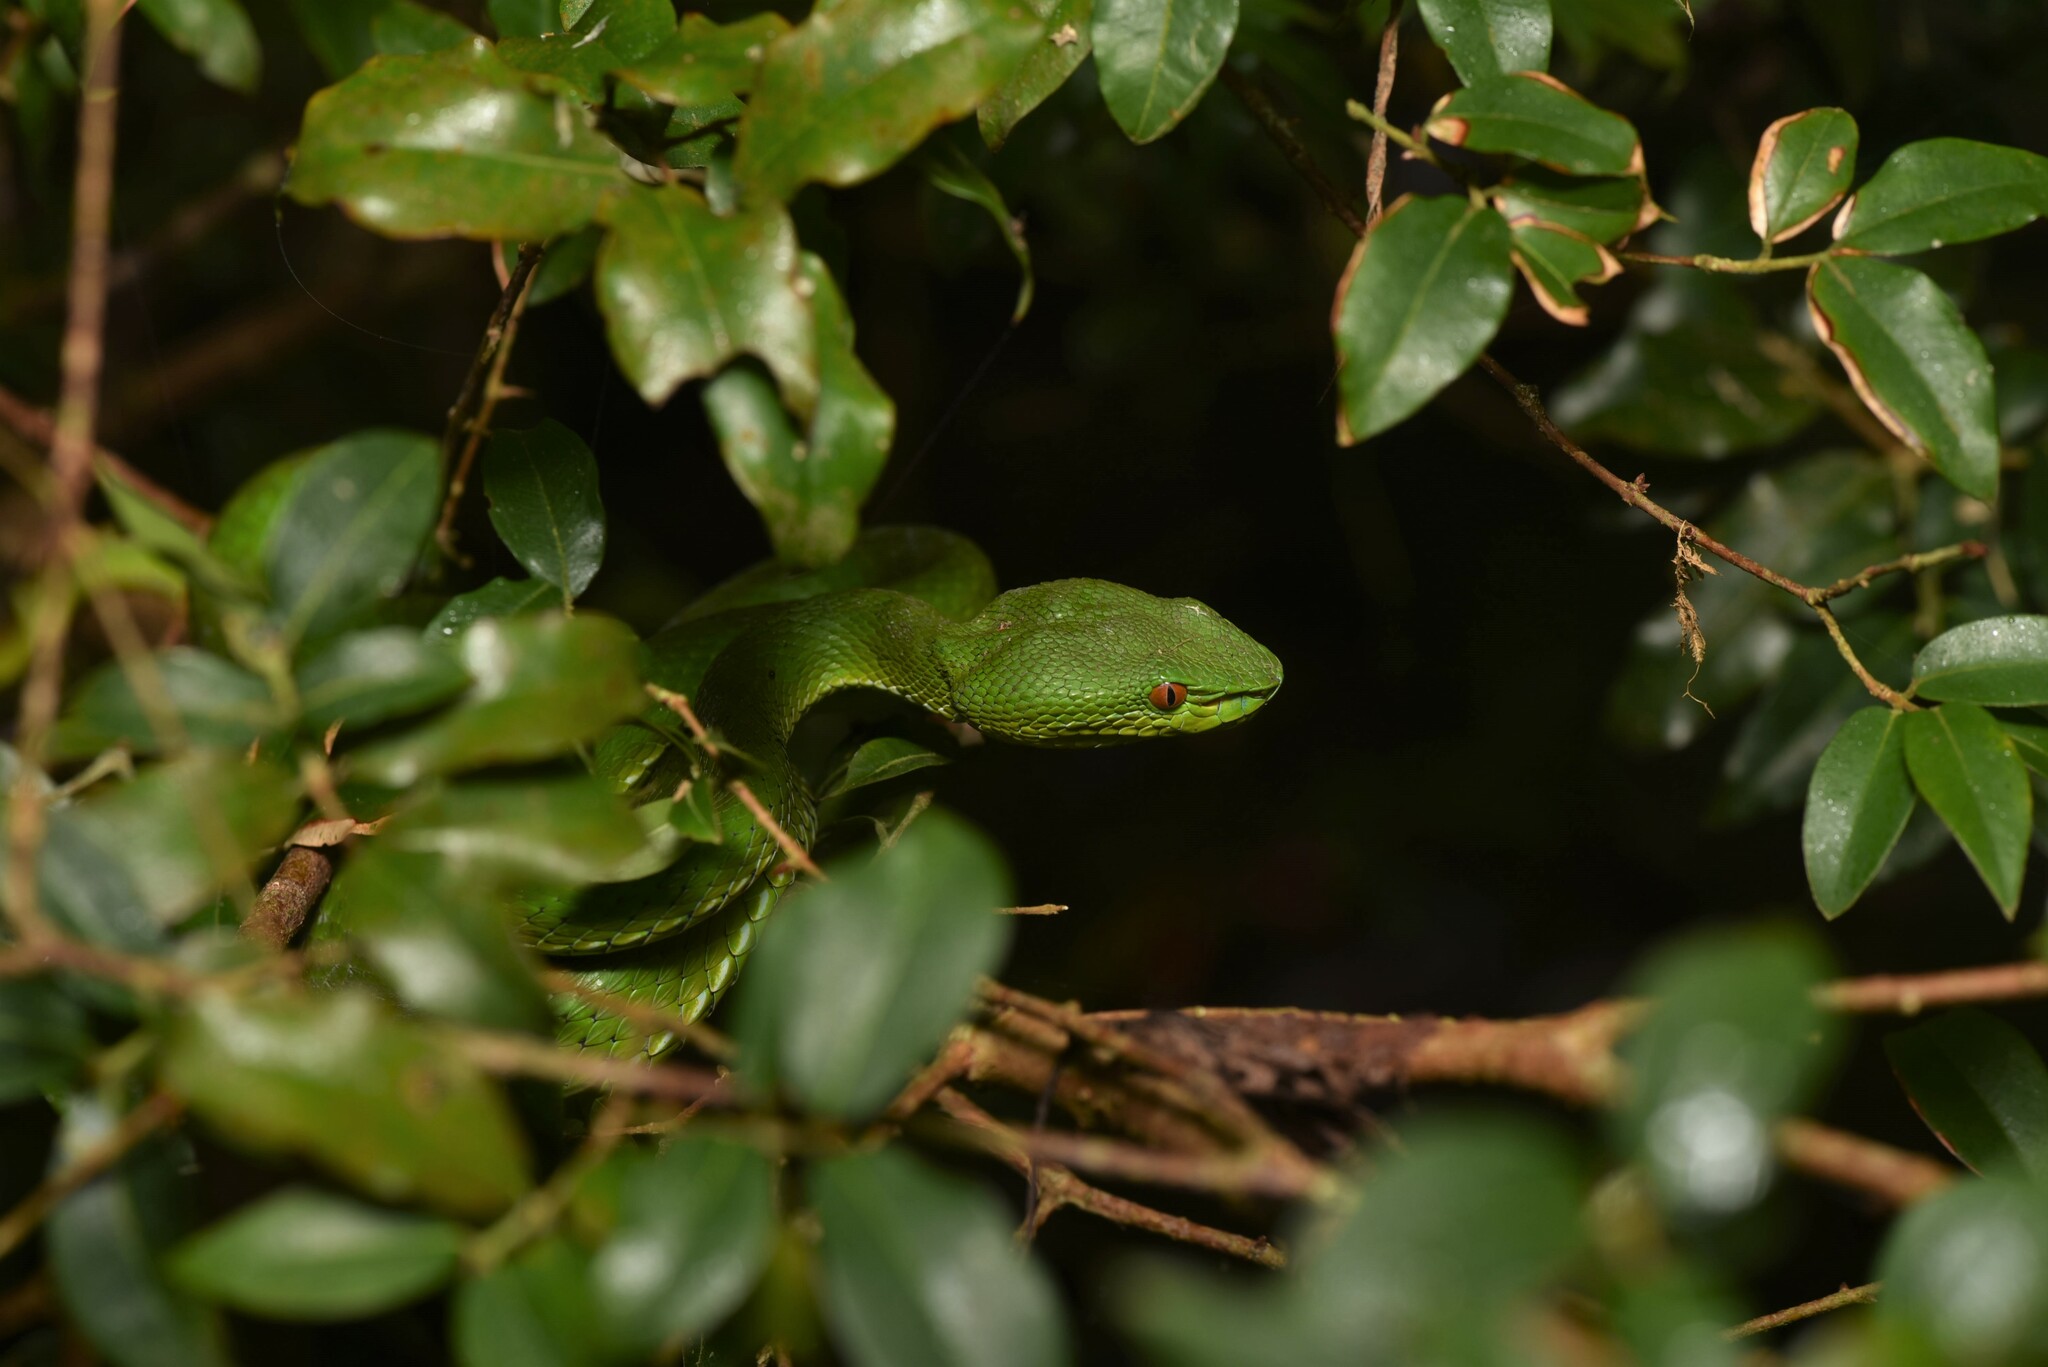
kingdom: Animalia
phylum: Chordata
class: Squamata
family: Viperidae
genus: Trimeresurus
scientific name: Trimeresurus stejnegeri
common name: Chen’s bamboo pit viper
